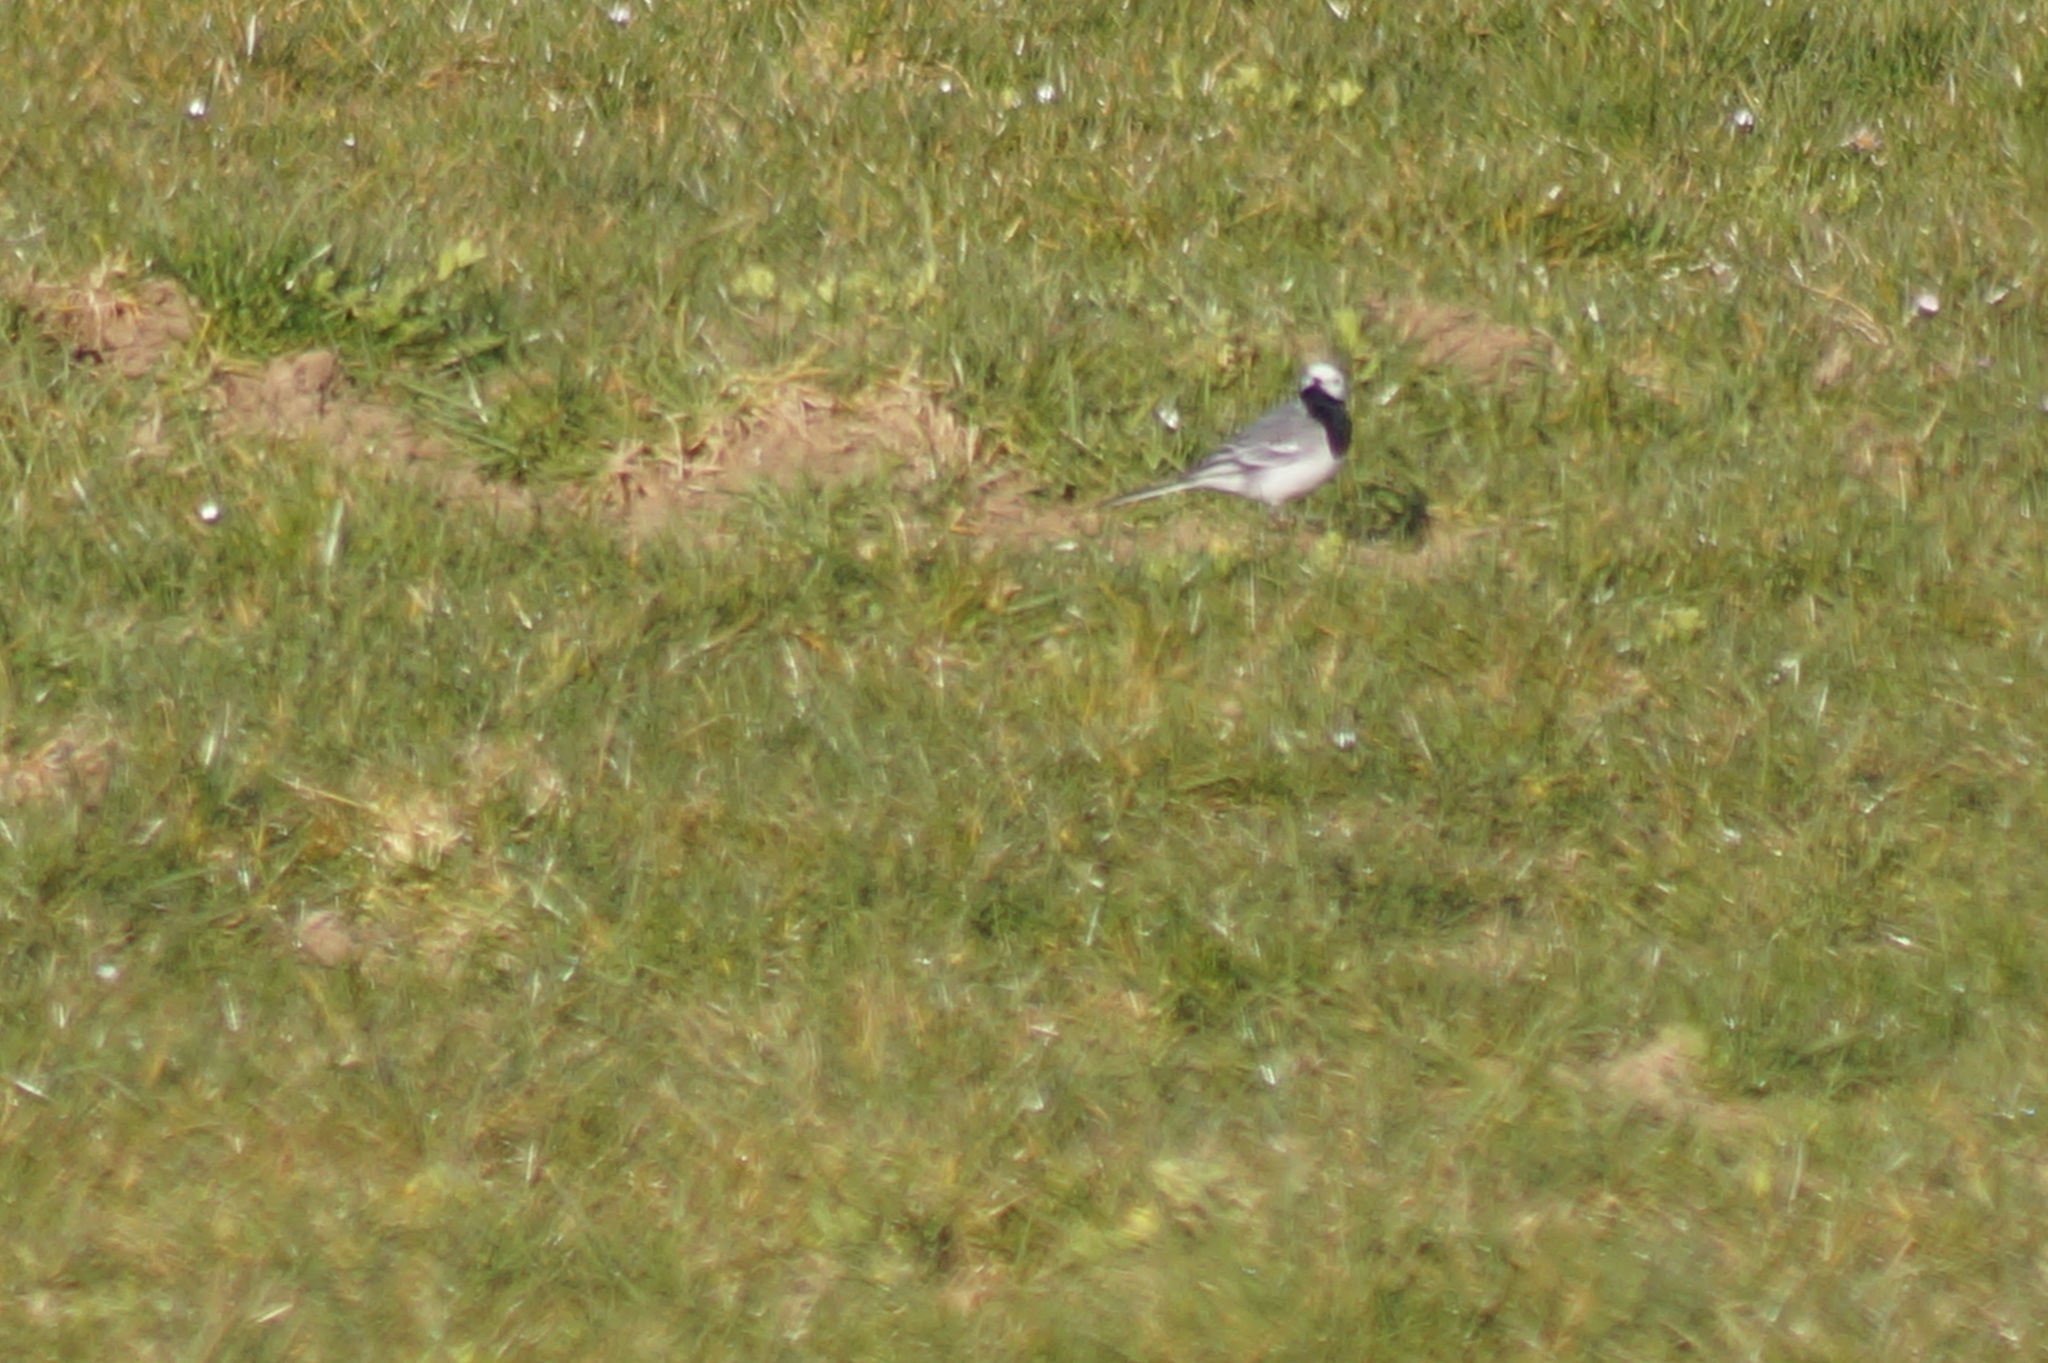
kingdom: Animalia
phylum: Chordata
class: Aves
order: Passeriformes
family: Motacillidae
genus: Motacilla
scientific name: Motacilla alba
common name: White wagtail
